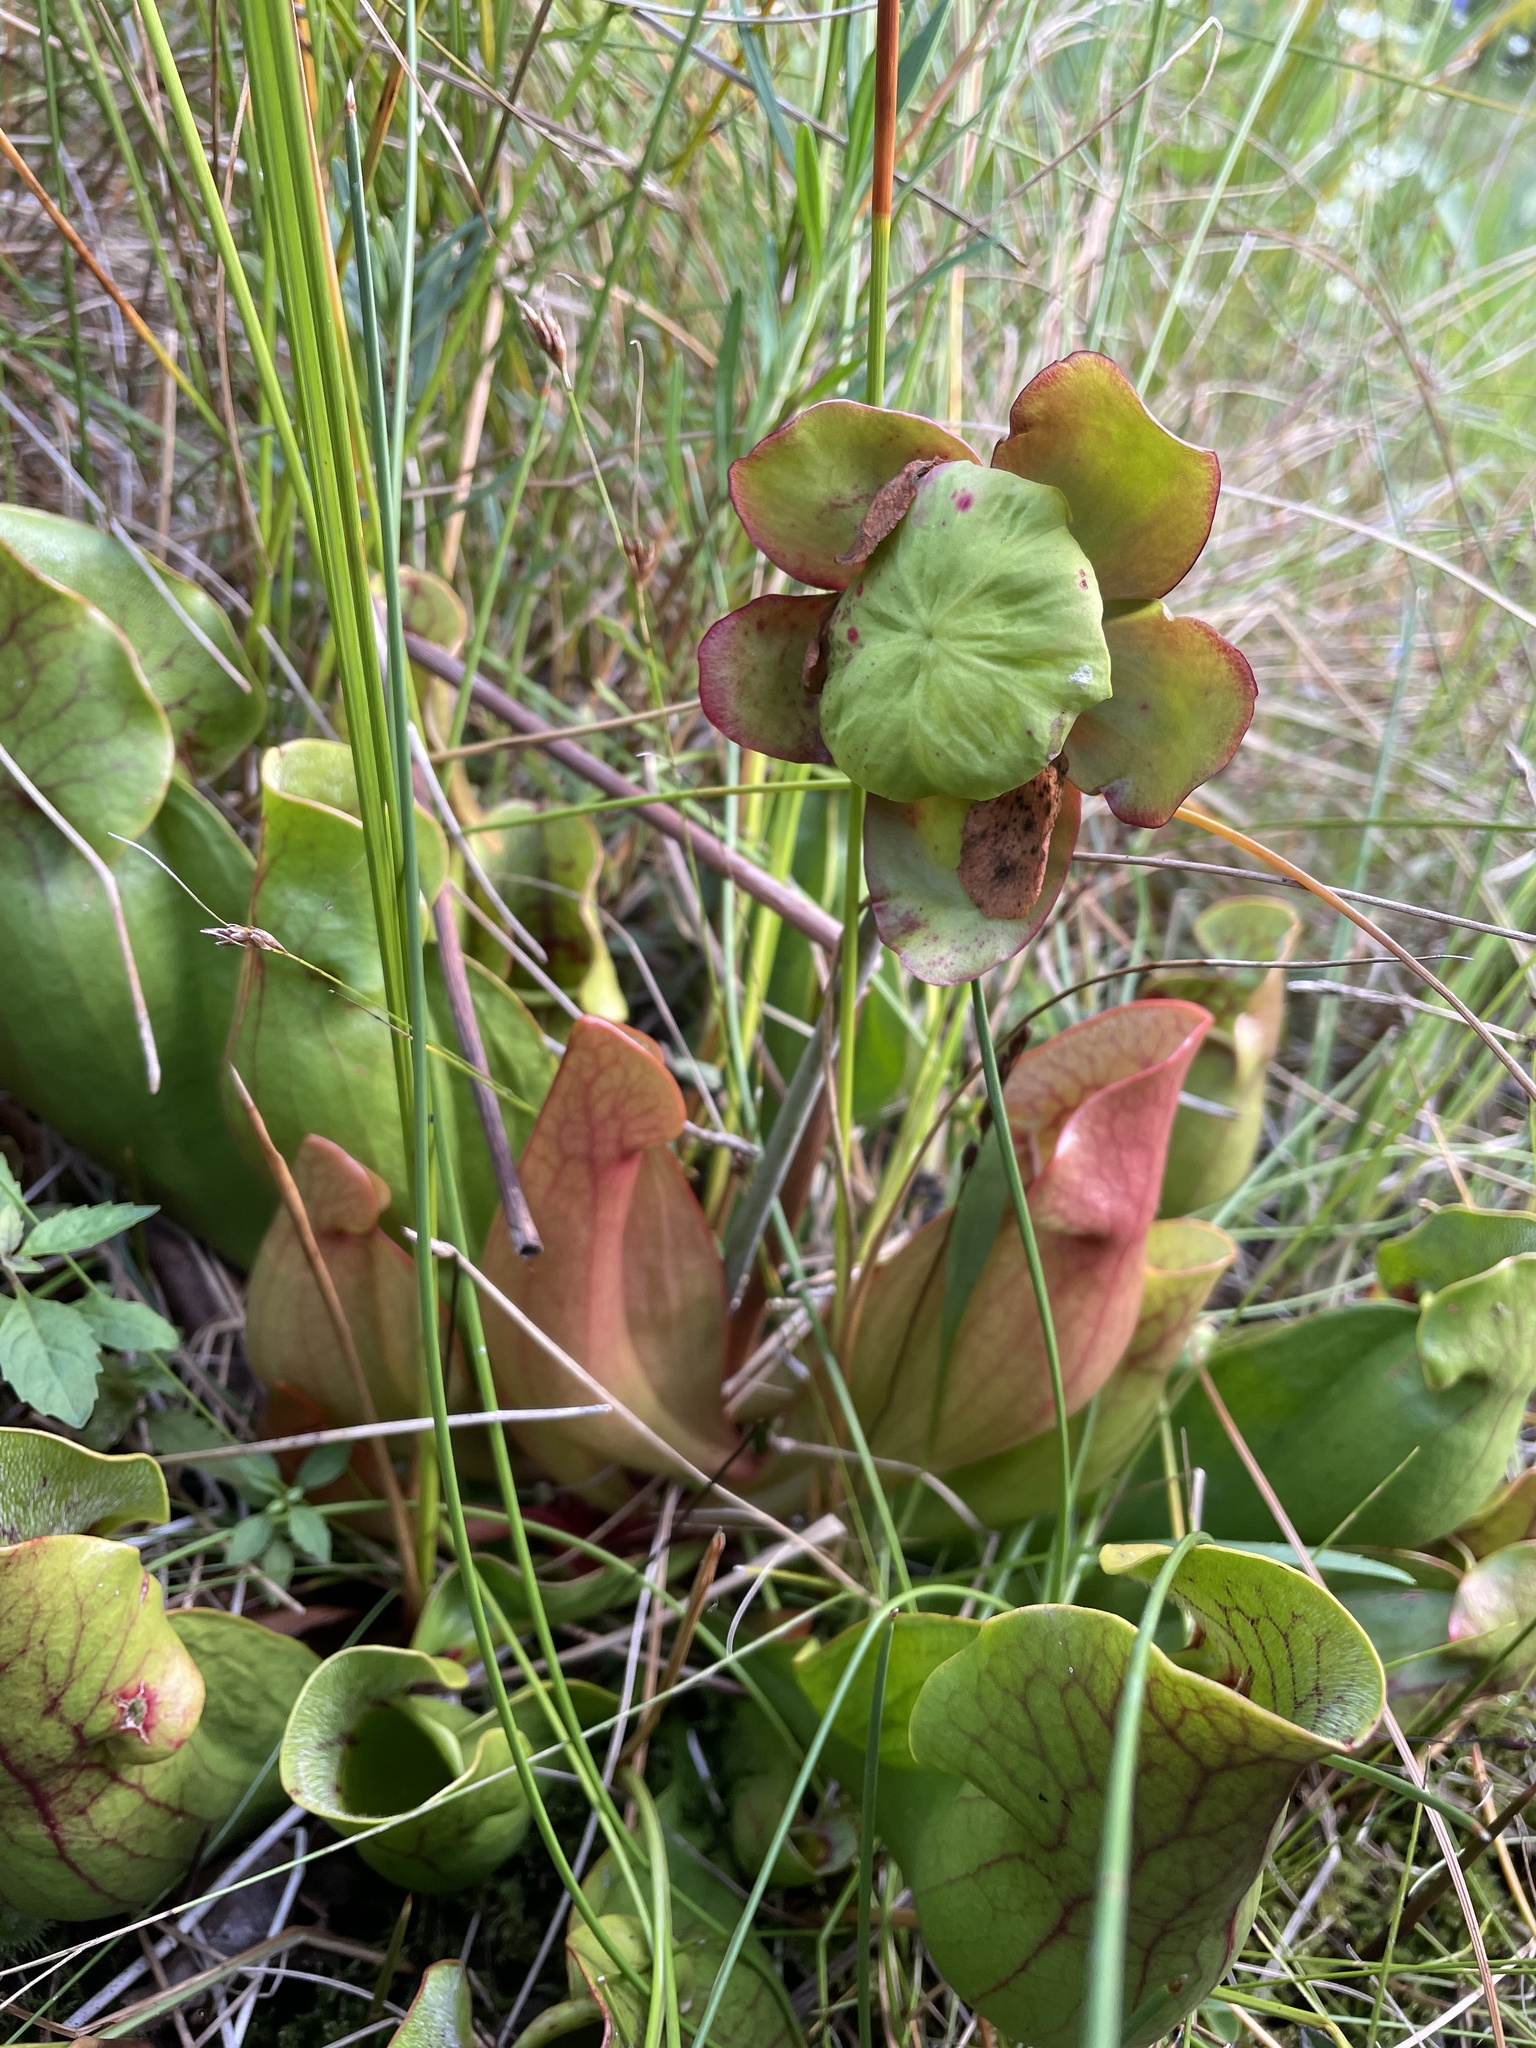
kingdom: Plantae
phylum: Tracheophyta
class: Magnoliopsida
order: Ericales
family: Sarraceniaceae
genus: Sarracenia
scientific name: Sarracenia purpurea
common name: Pitcherplant
